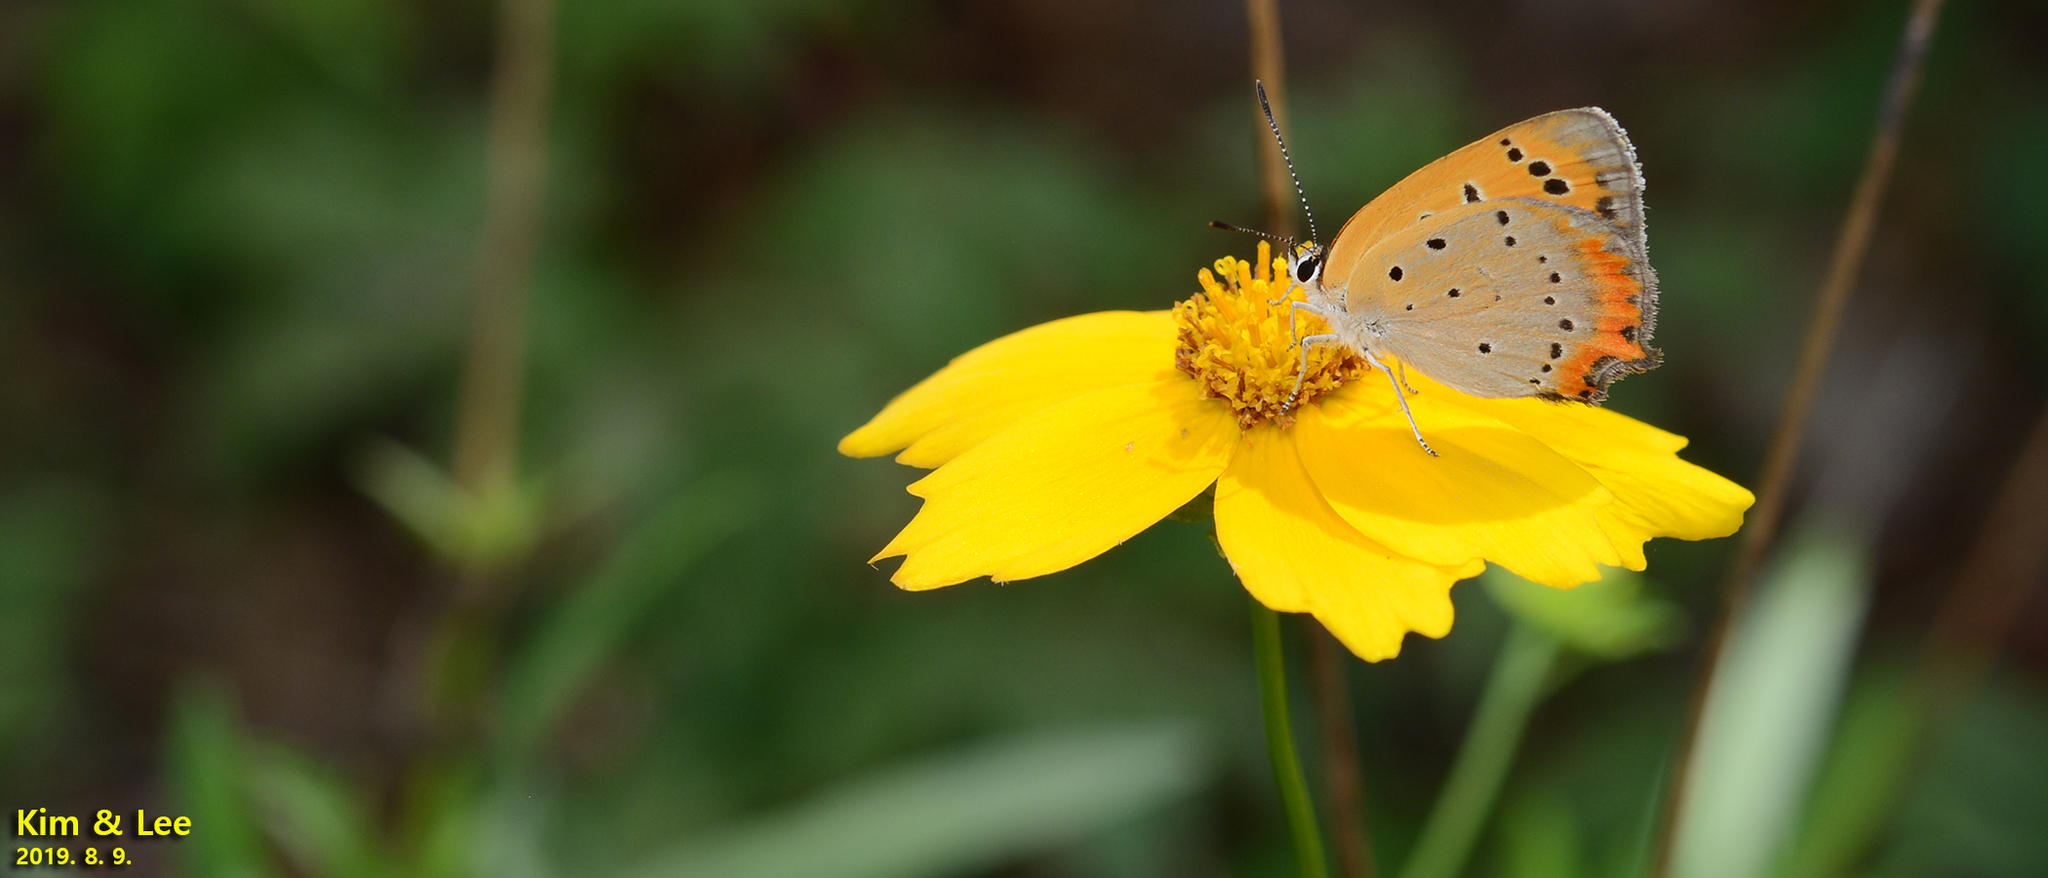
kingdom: Animalia
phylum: Arthropoda
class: Insecta
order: Lepidoptera
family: Lycaenidae
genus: Lycaena
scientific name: Lycaena phlaeas
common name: Small copper
